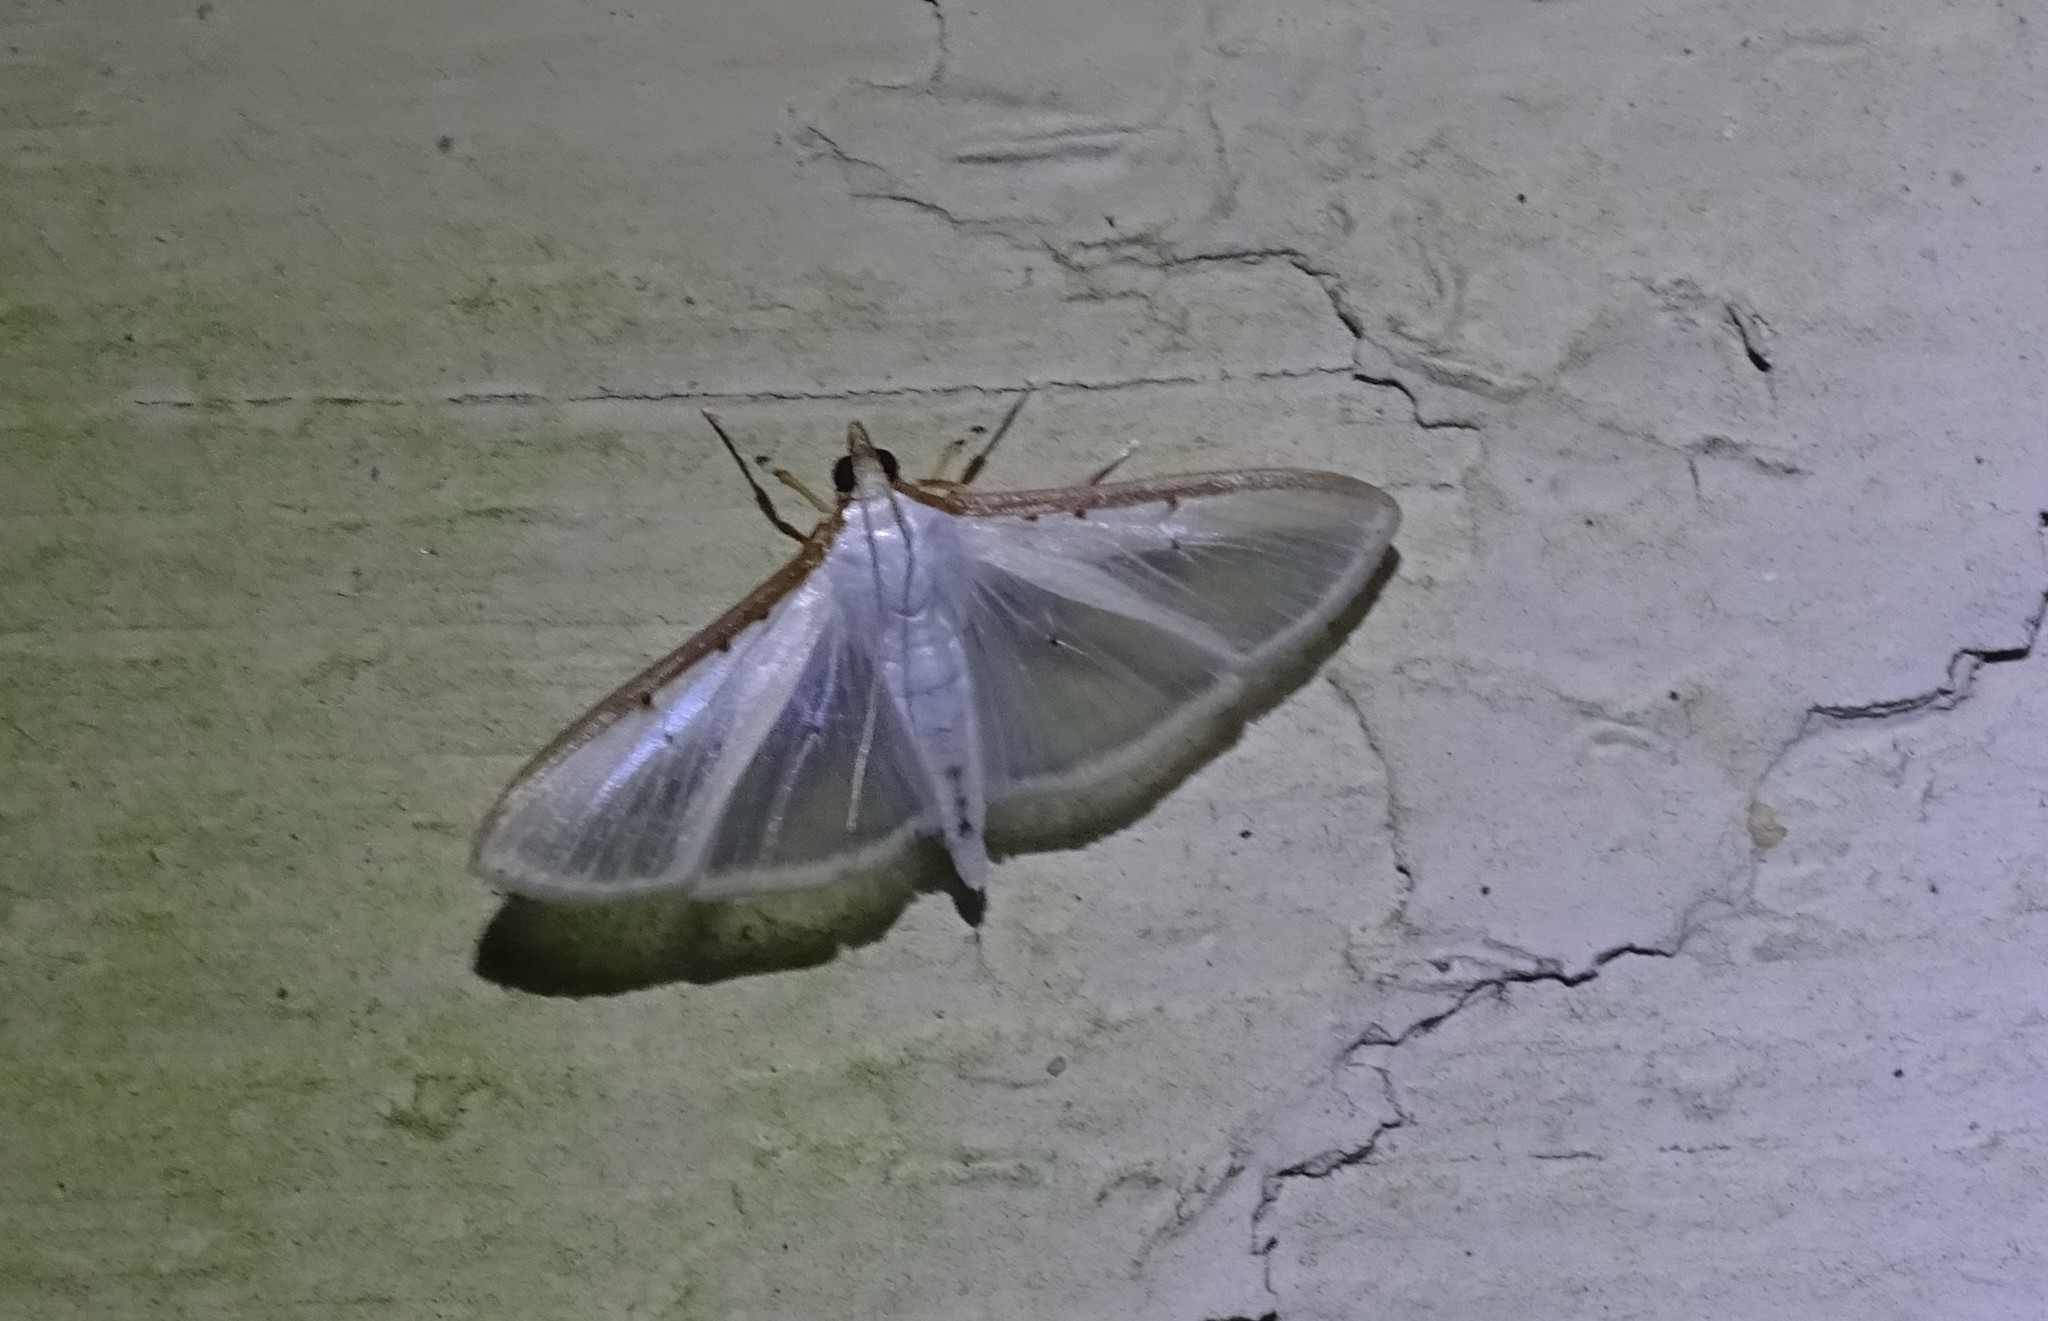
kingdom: Animalia
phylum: Arthropoda
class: Insecta
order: Lepidoptera
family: Crambidae
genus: Palpita
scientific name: Palpita quadristigmalis
